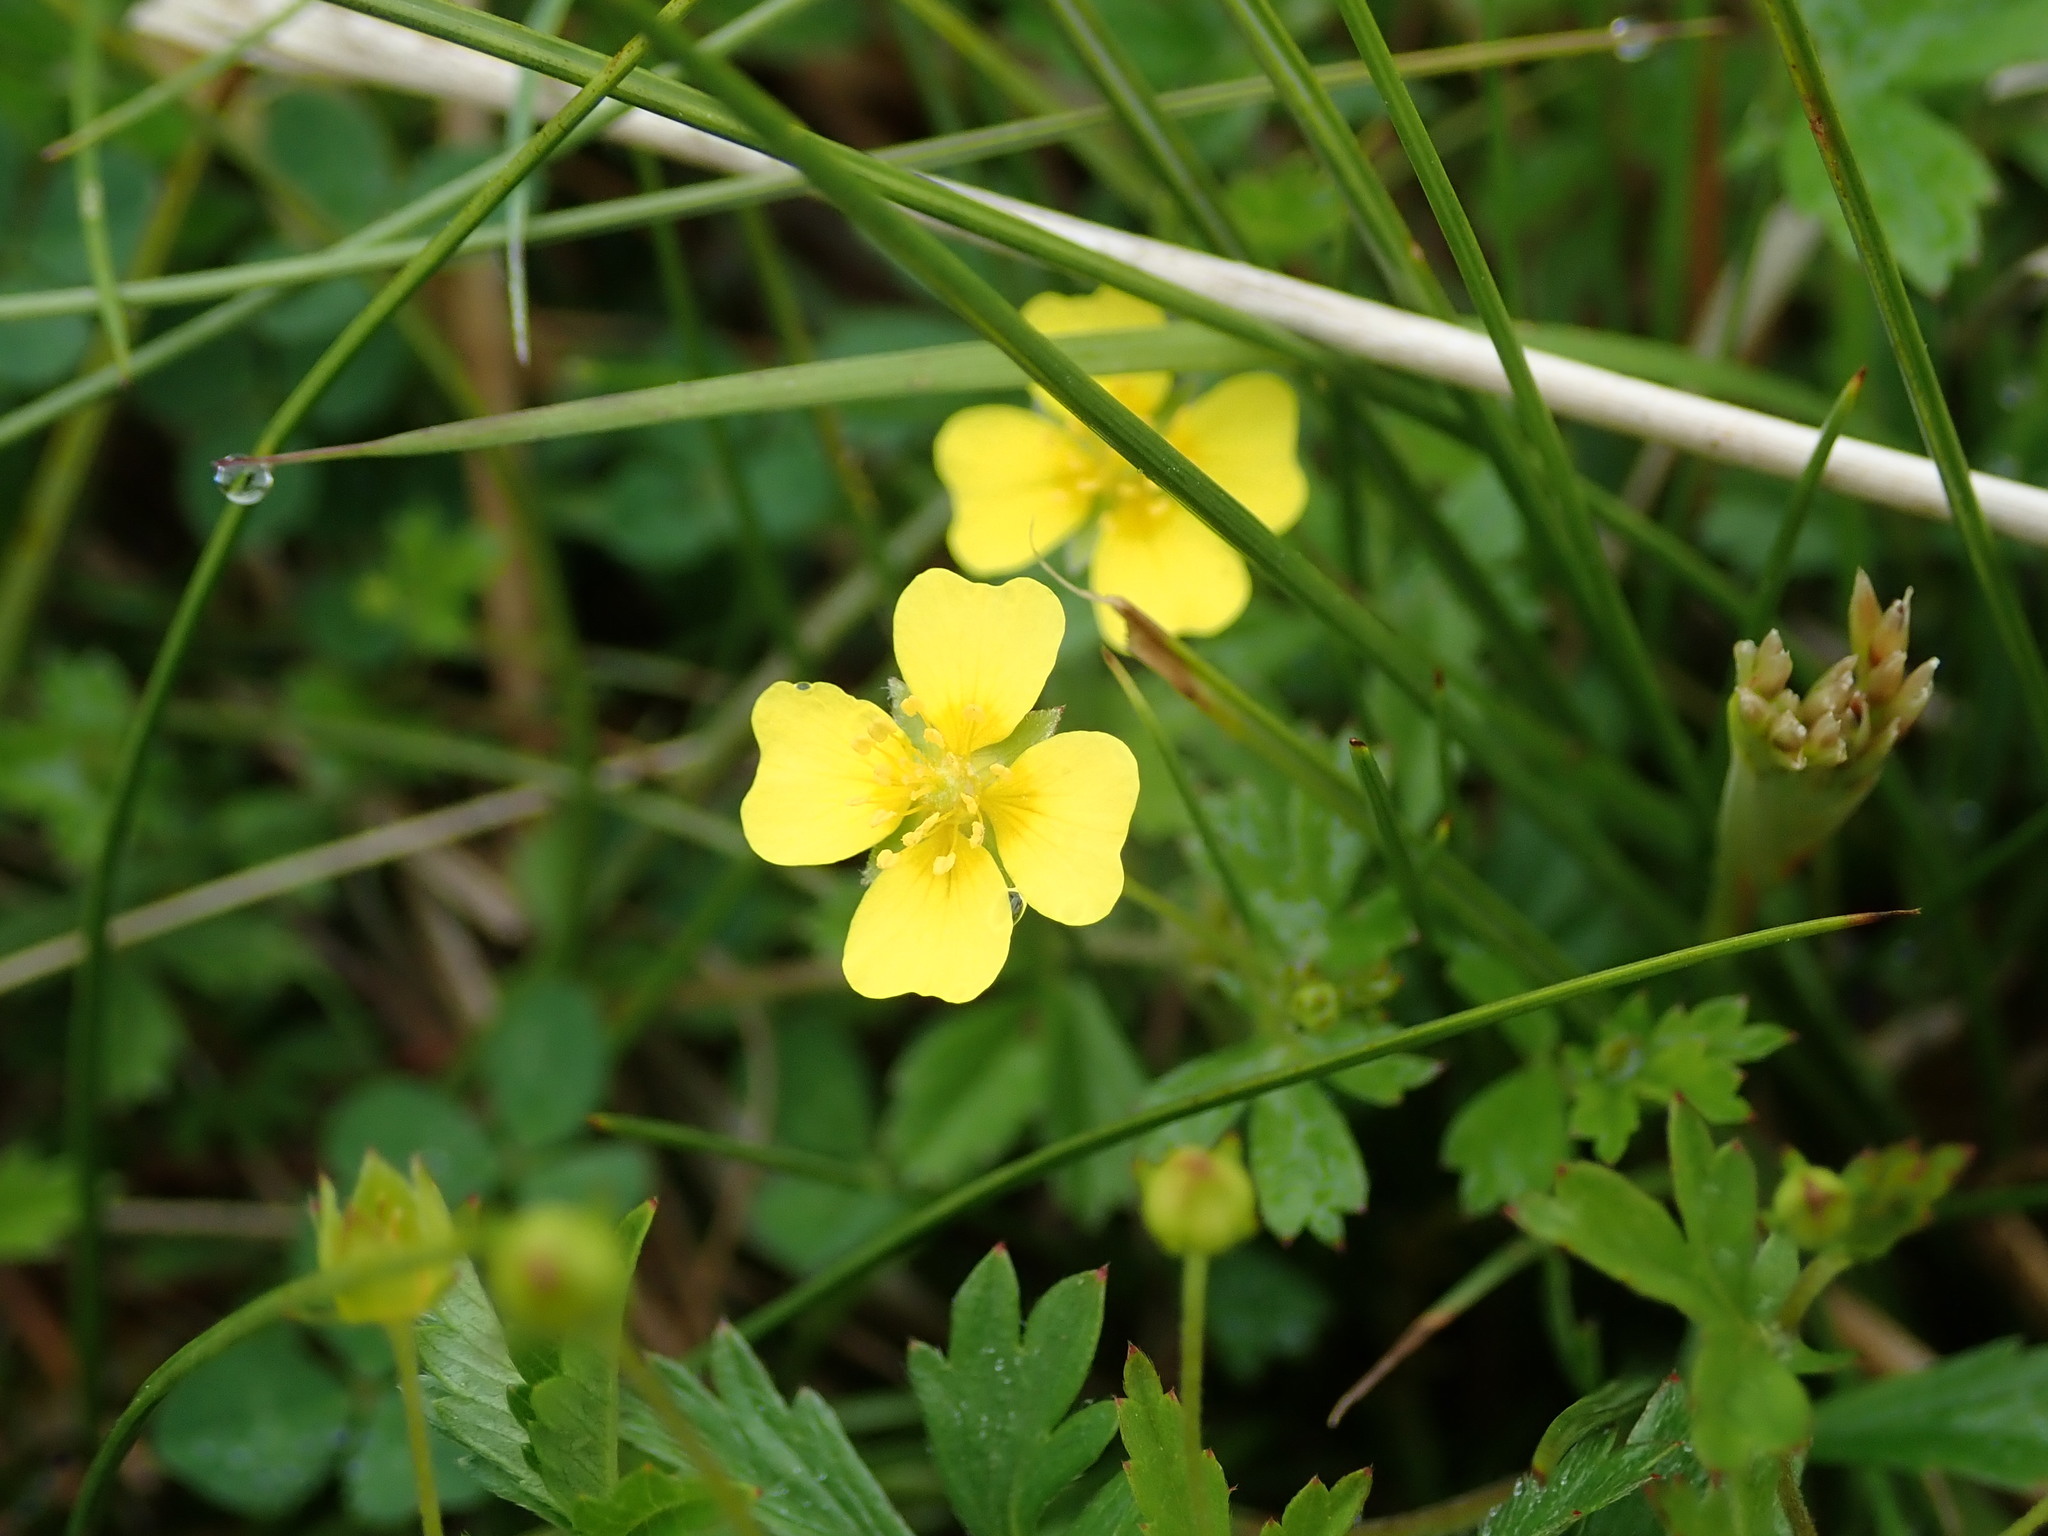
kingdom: Plantae
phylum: Tracheophyta
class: Magnoliopsida
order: Rosales
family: Rosaceae
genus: Potentilla
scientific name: Potentilla erecta
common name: Tormentil
